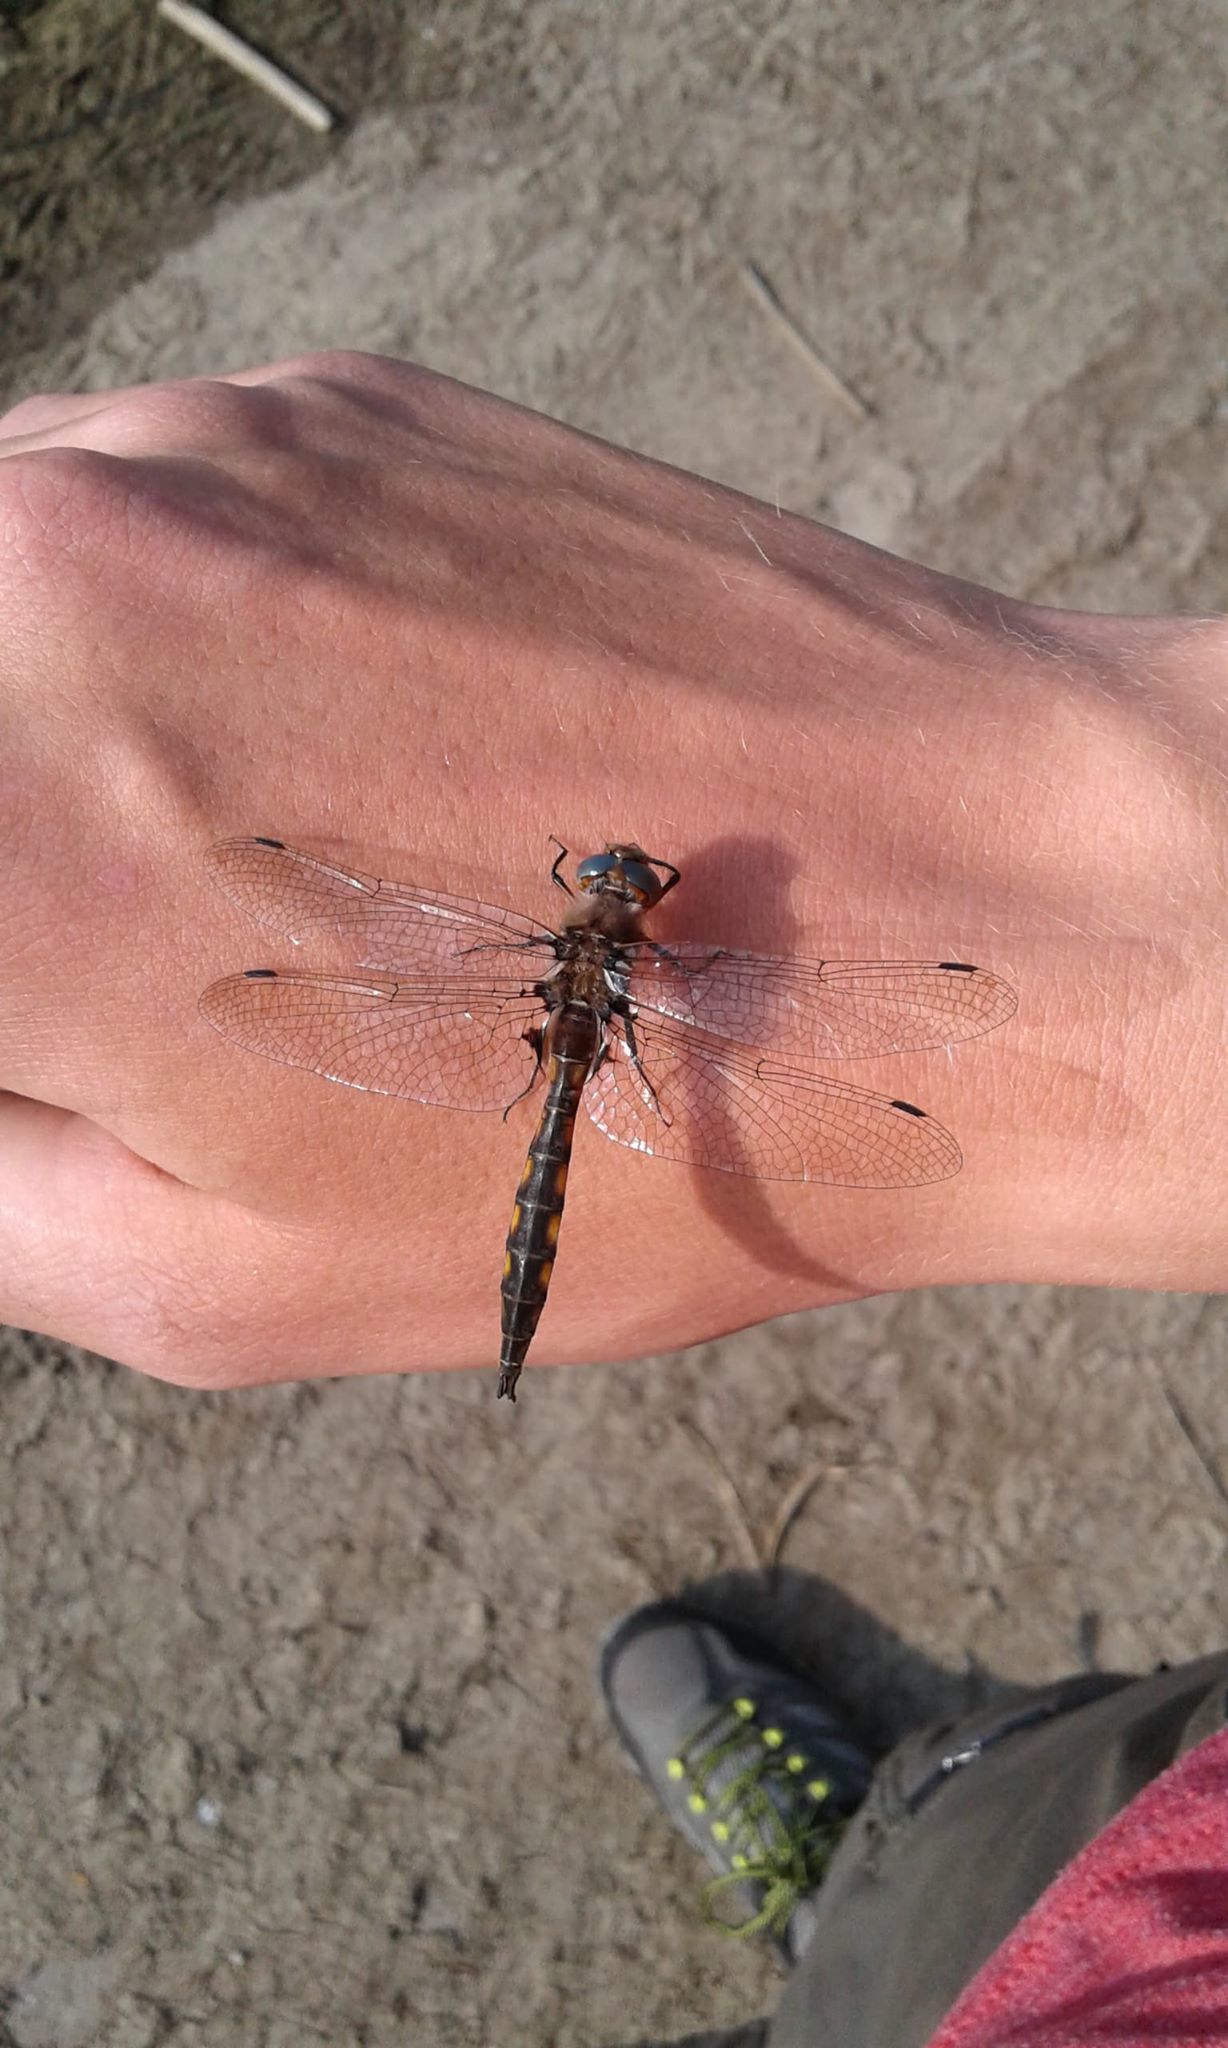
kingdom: Animalia
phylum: Arthropoda
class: Insecta
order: Odonata
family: Corduliidae
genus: Epitheca
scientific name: Epitheca canis
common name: Beaverpond baskettail
